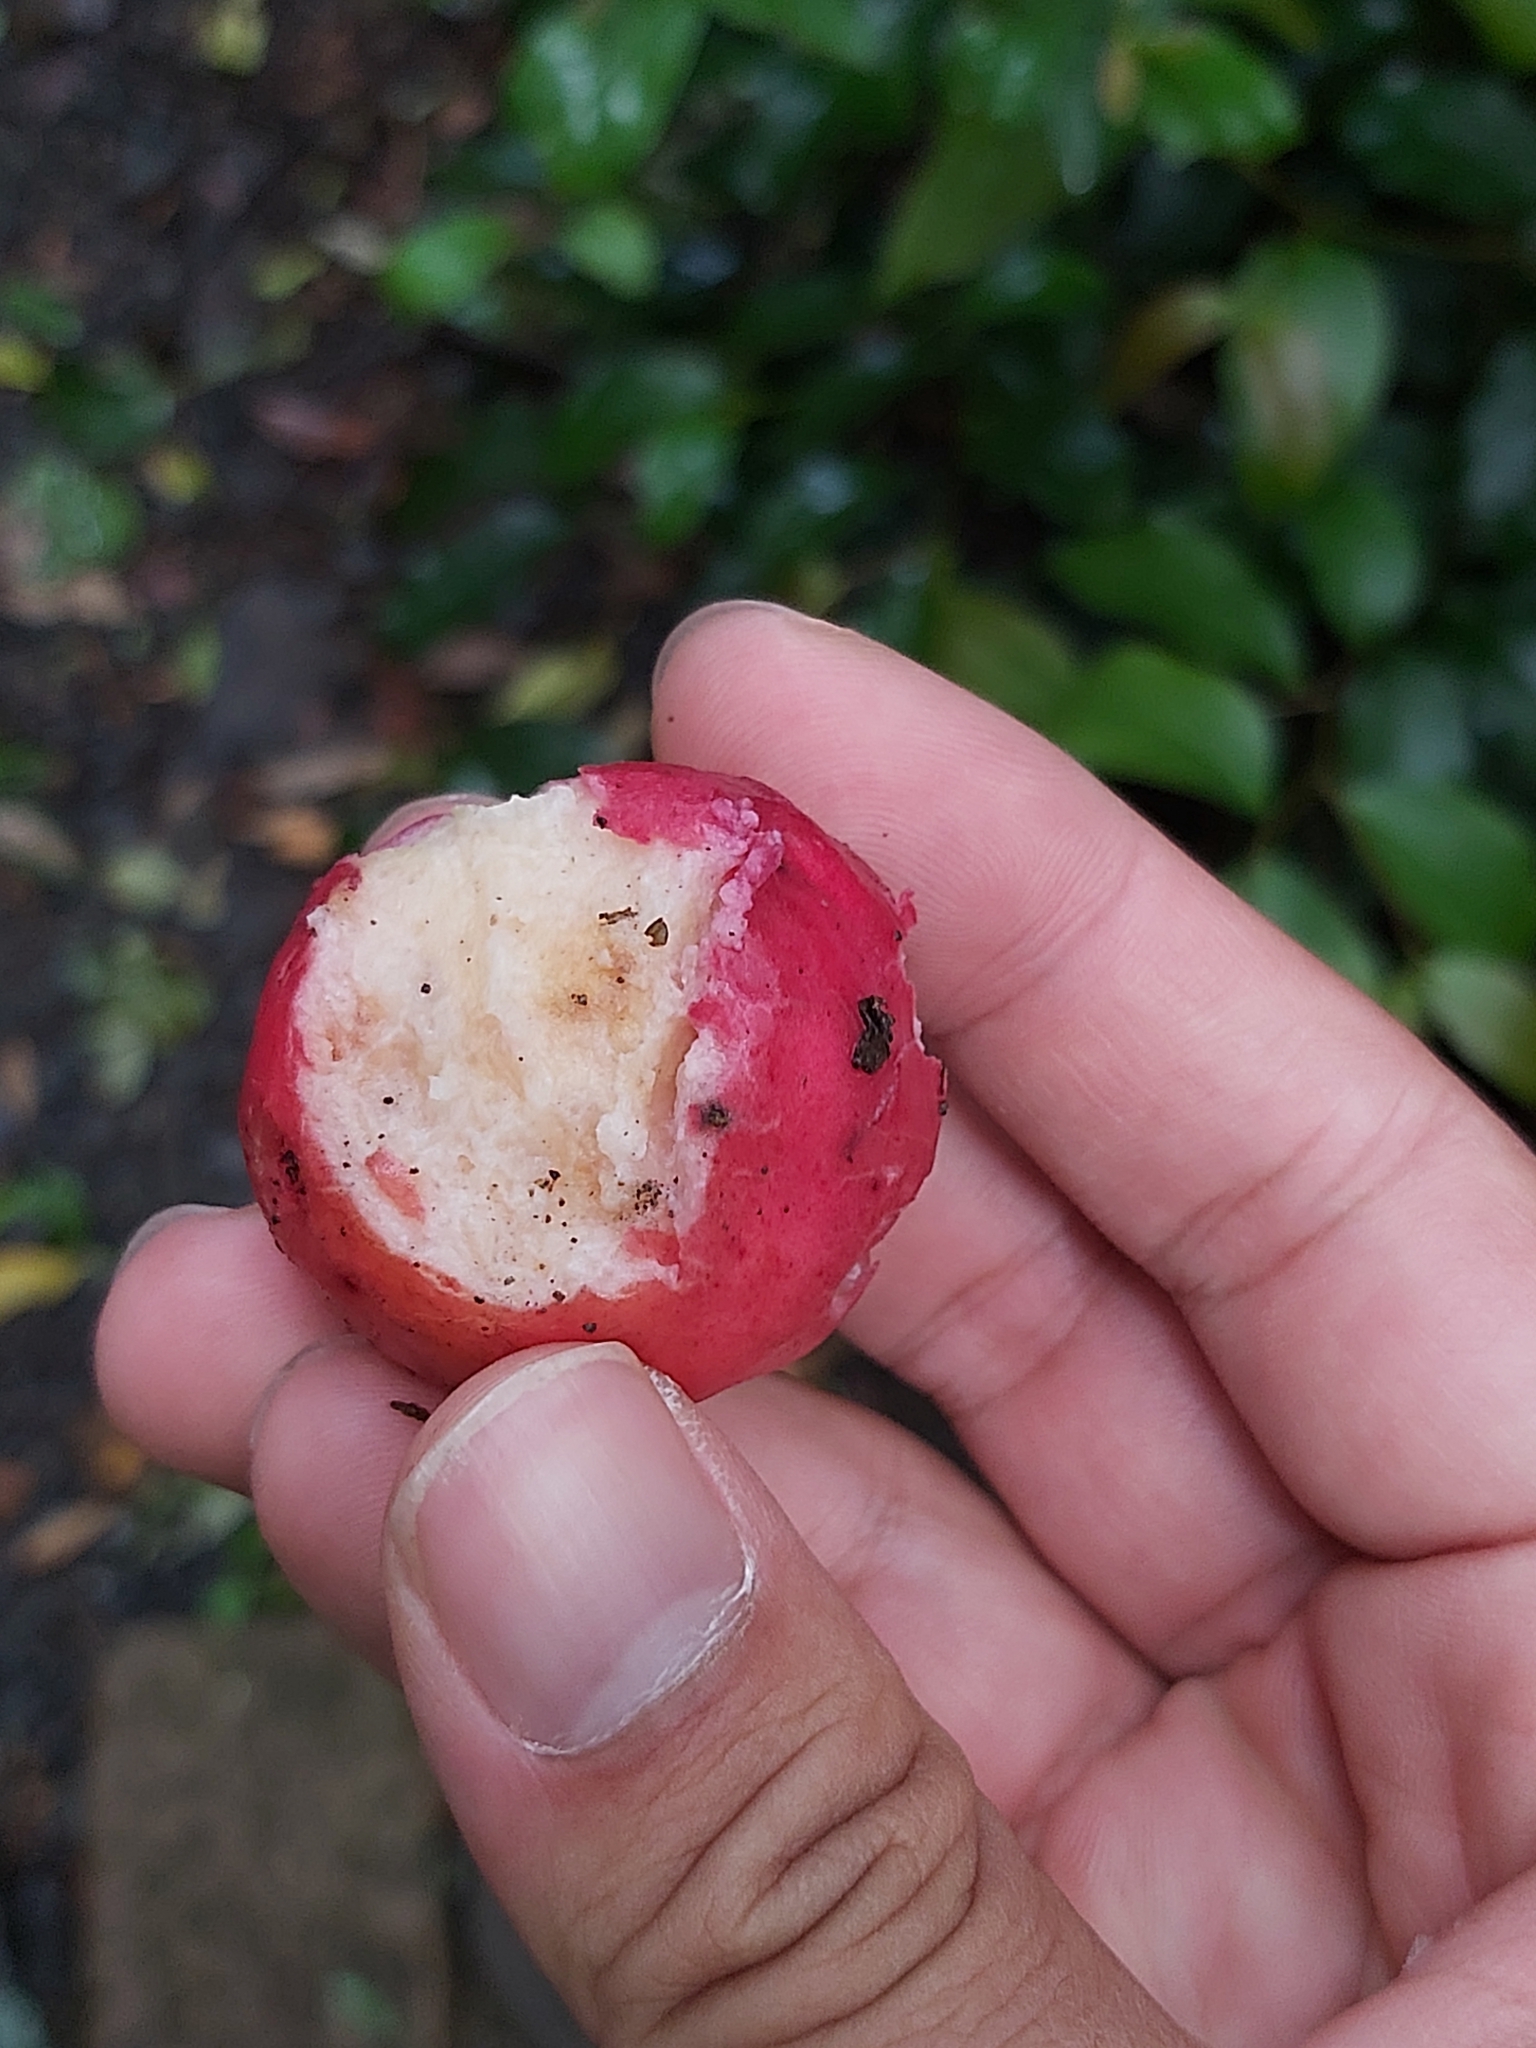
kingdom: Plantae
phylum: Tracheophyta
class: Magnoliopsida
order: Myrtales
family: Myrtaceae
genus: Syzygium
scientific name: Syzygium ingens
